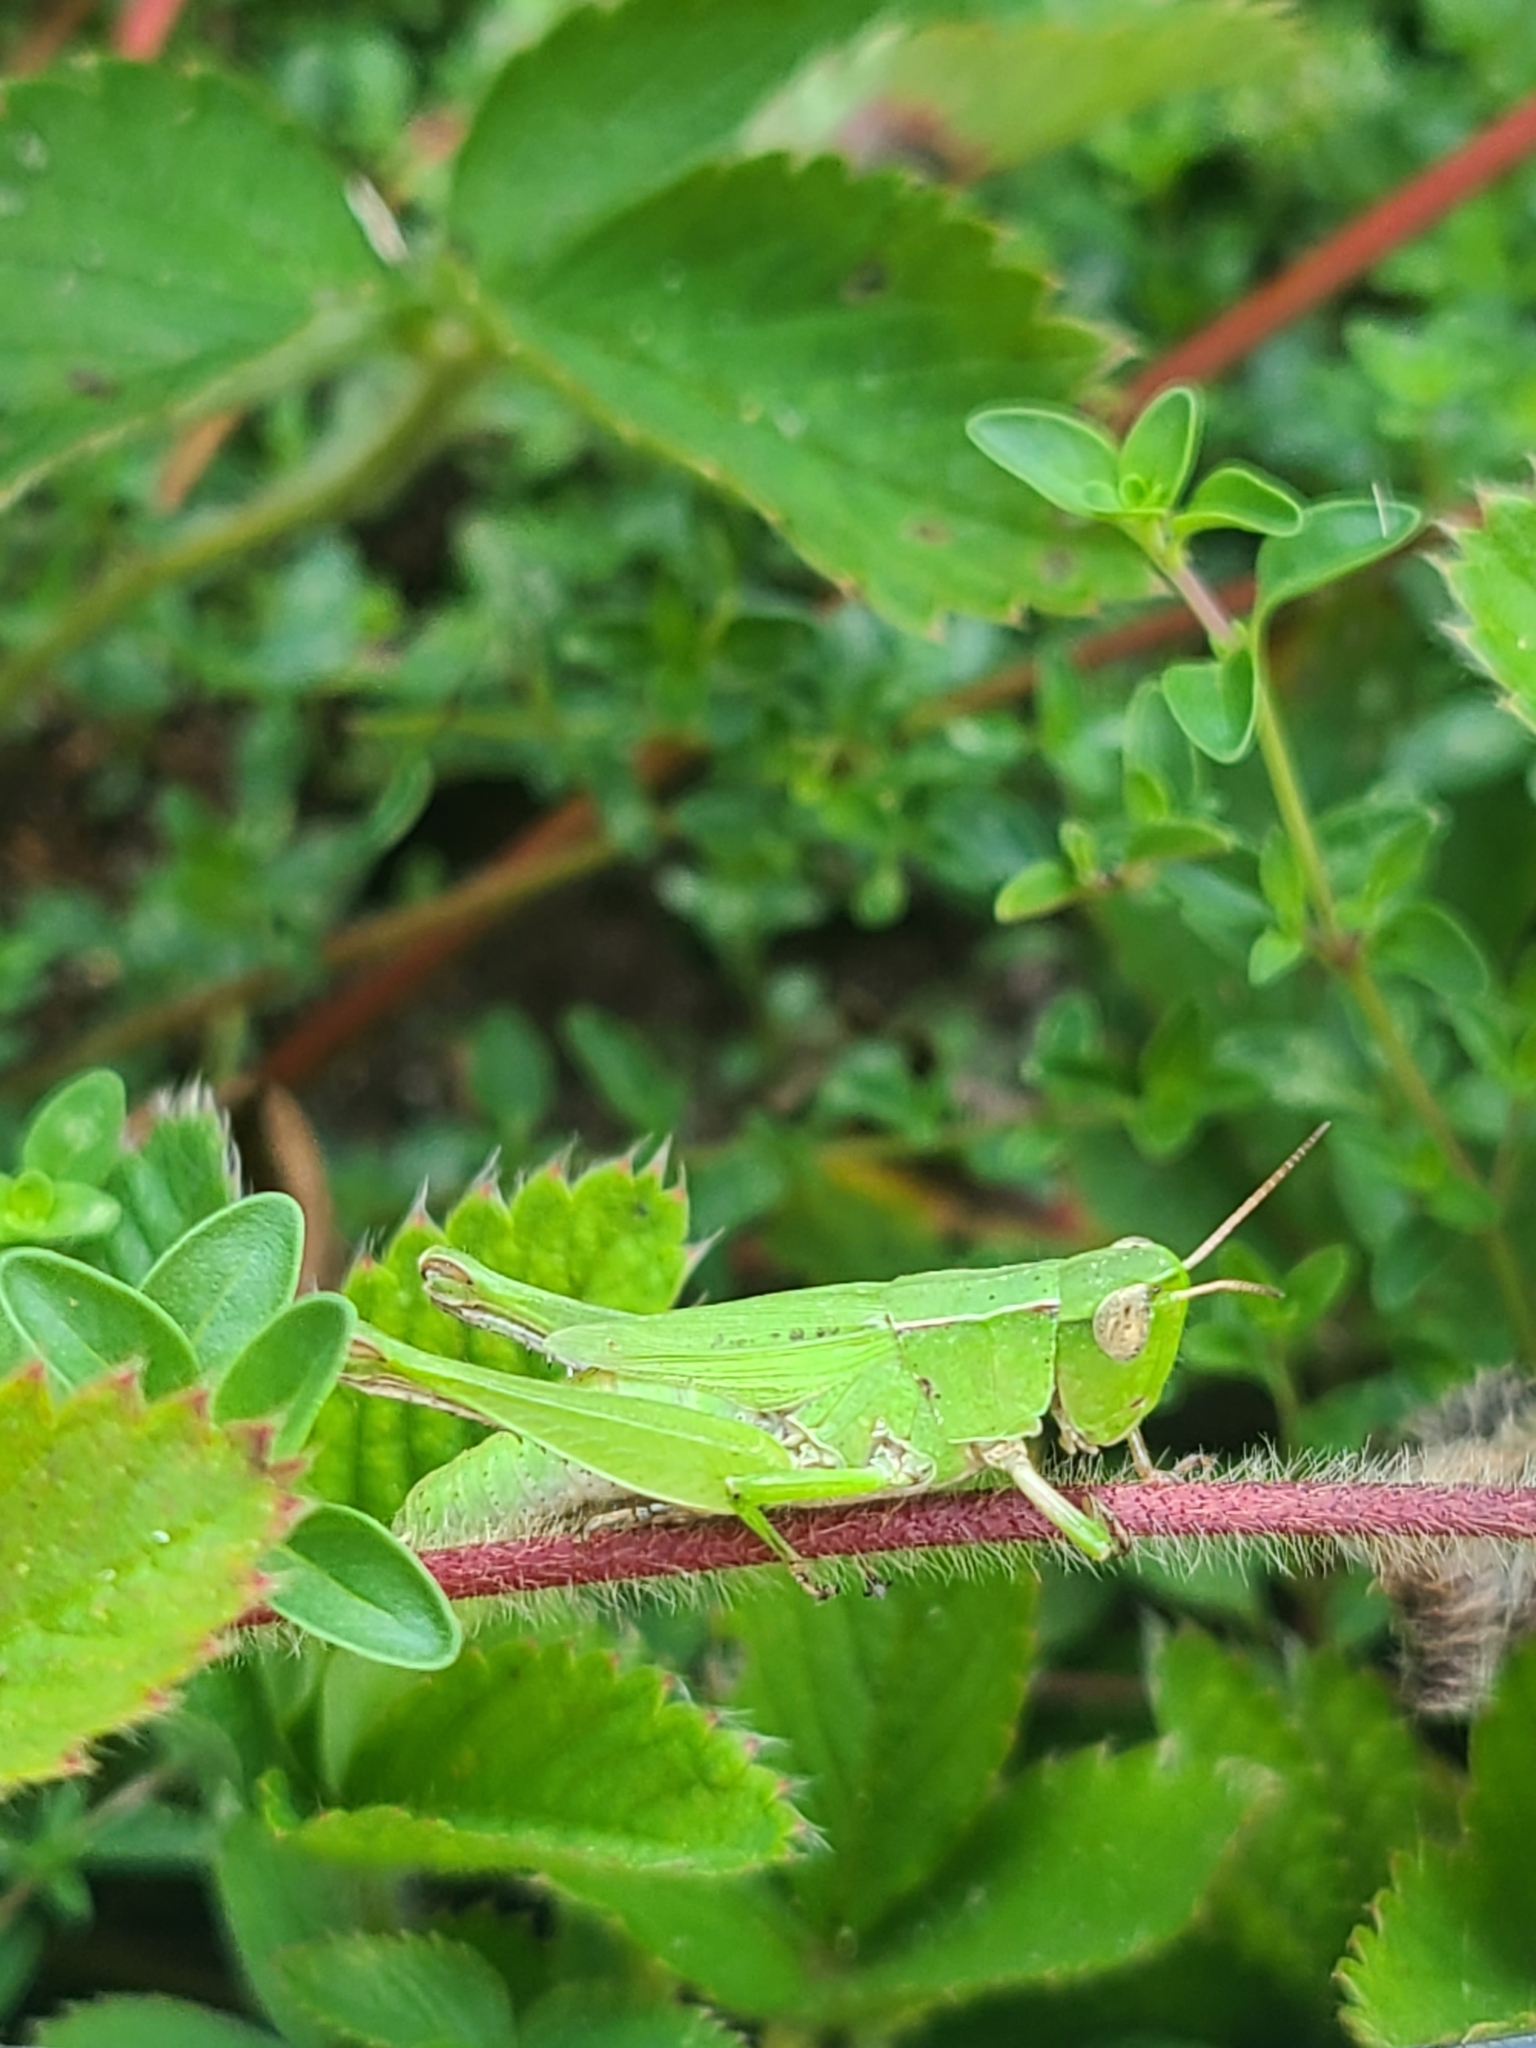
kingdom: Animalia
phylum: Arthropoda
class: Insecta
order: Orthoptera
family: Acrididae
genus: Dichromorpha
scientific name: Dichromorpha viridis
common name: Short-winged green grasshopper
